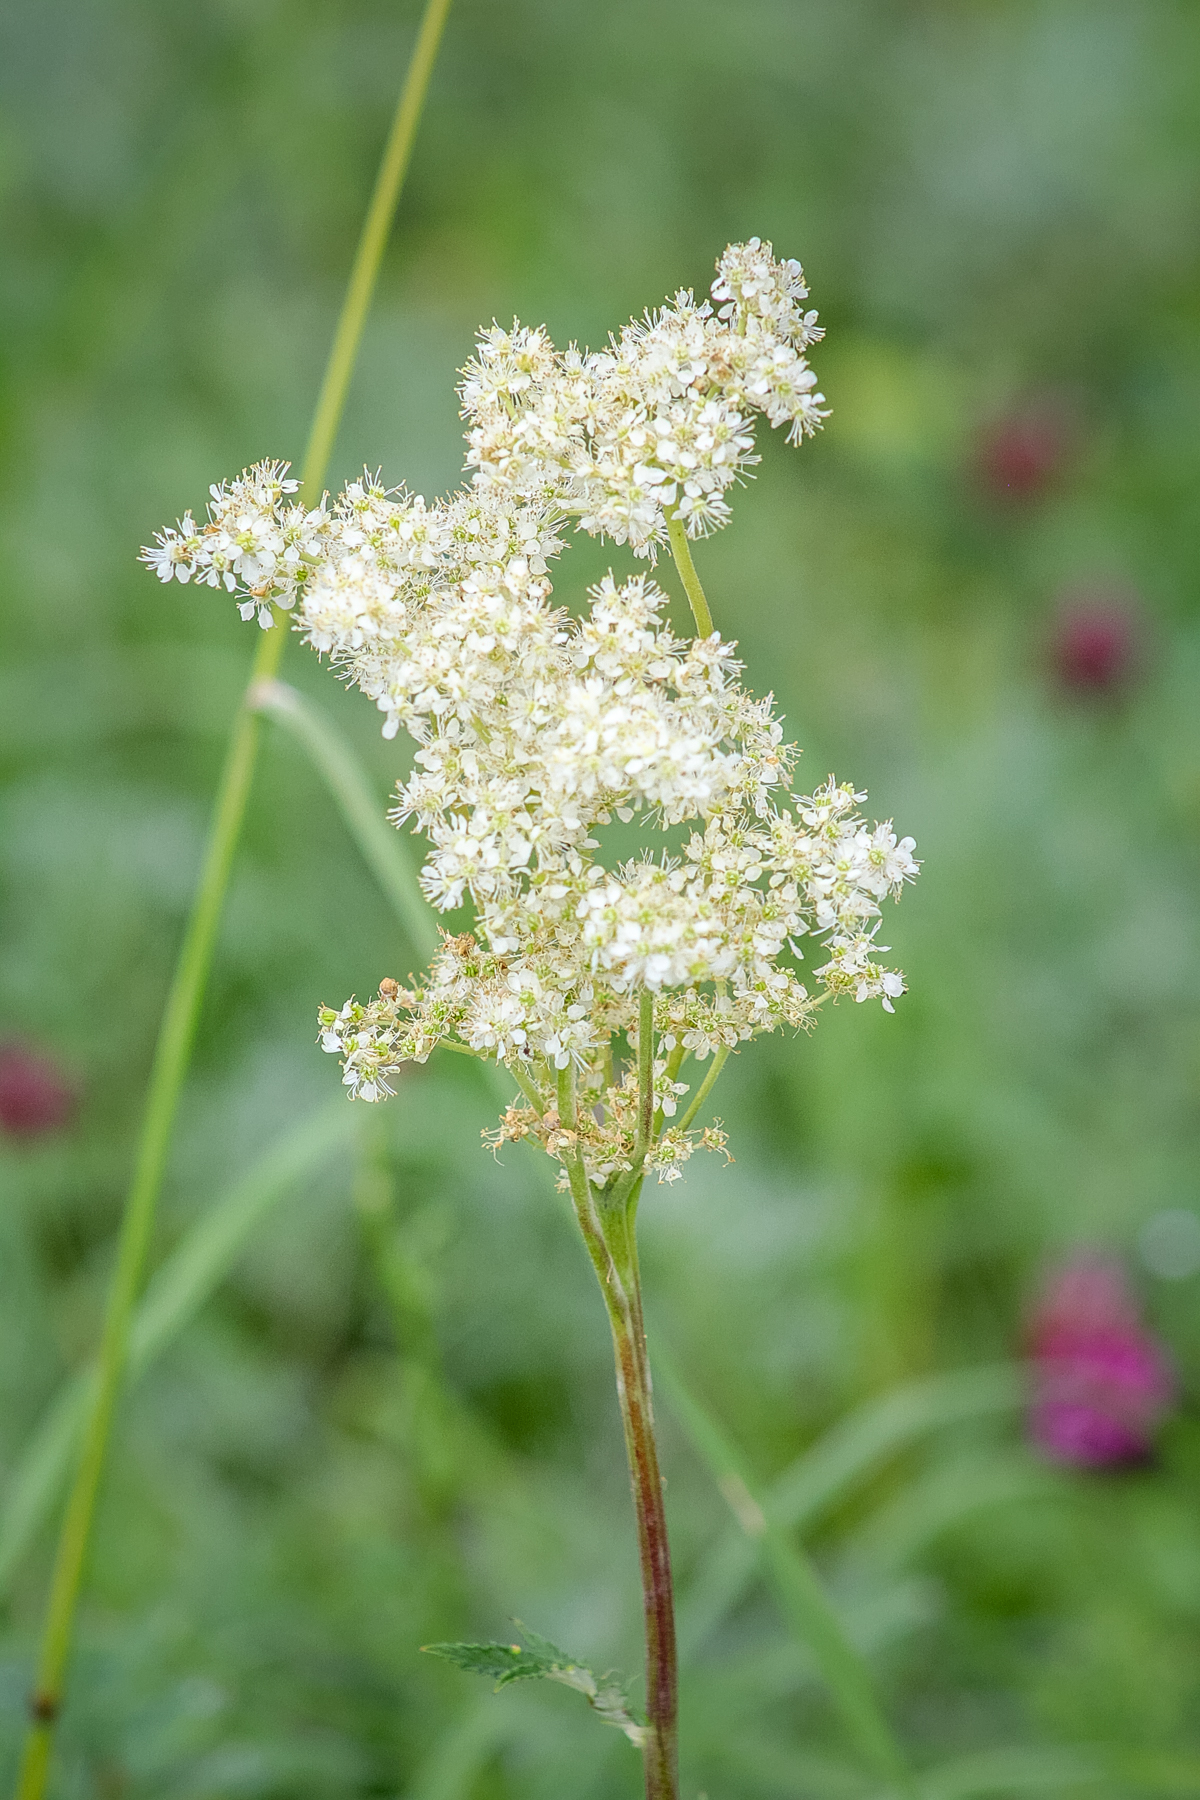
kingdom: Plantae
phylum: Tracheophyta
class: Magnoliopsida
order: Rosales
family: Rosaceae
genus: Filipendula
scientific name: Filipendula ulmaria
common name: Meadowsweet
